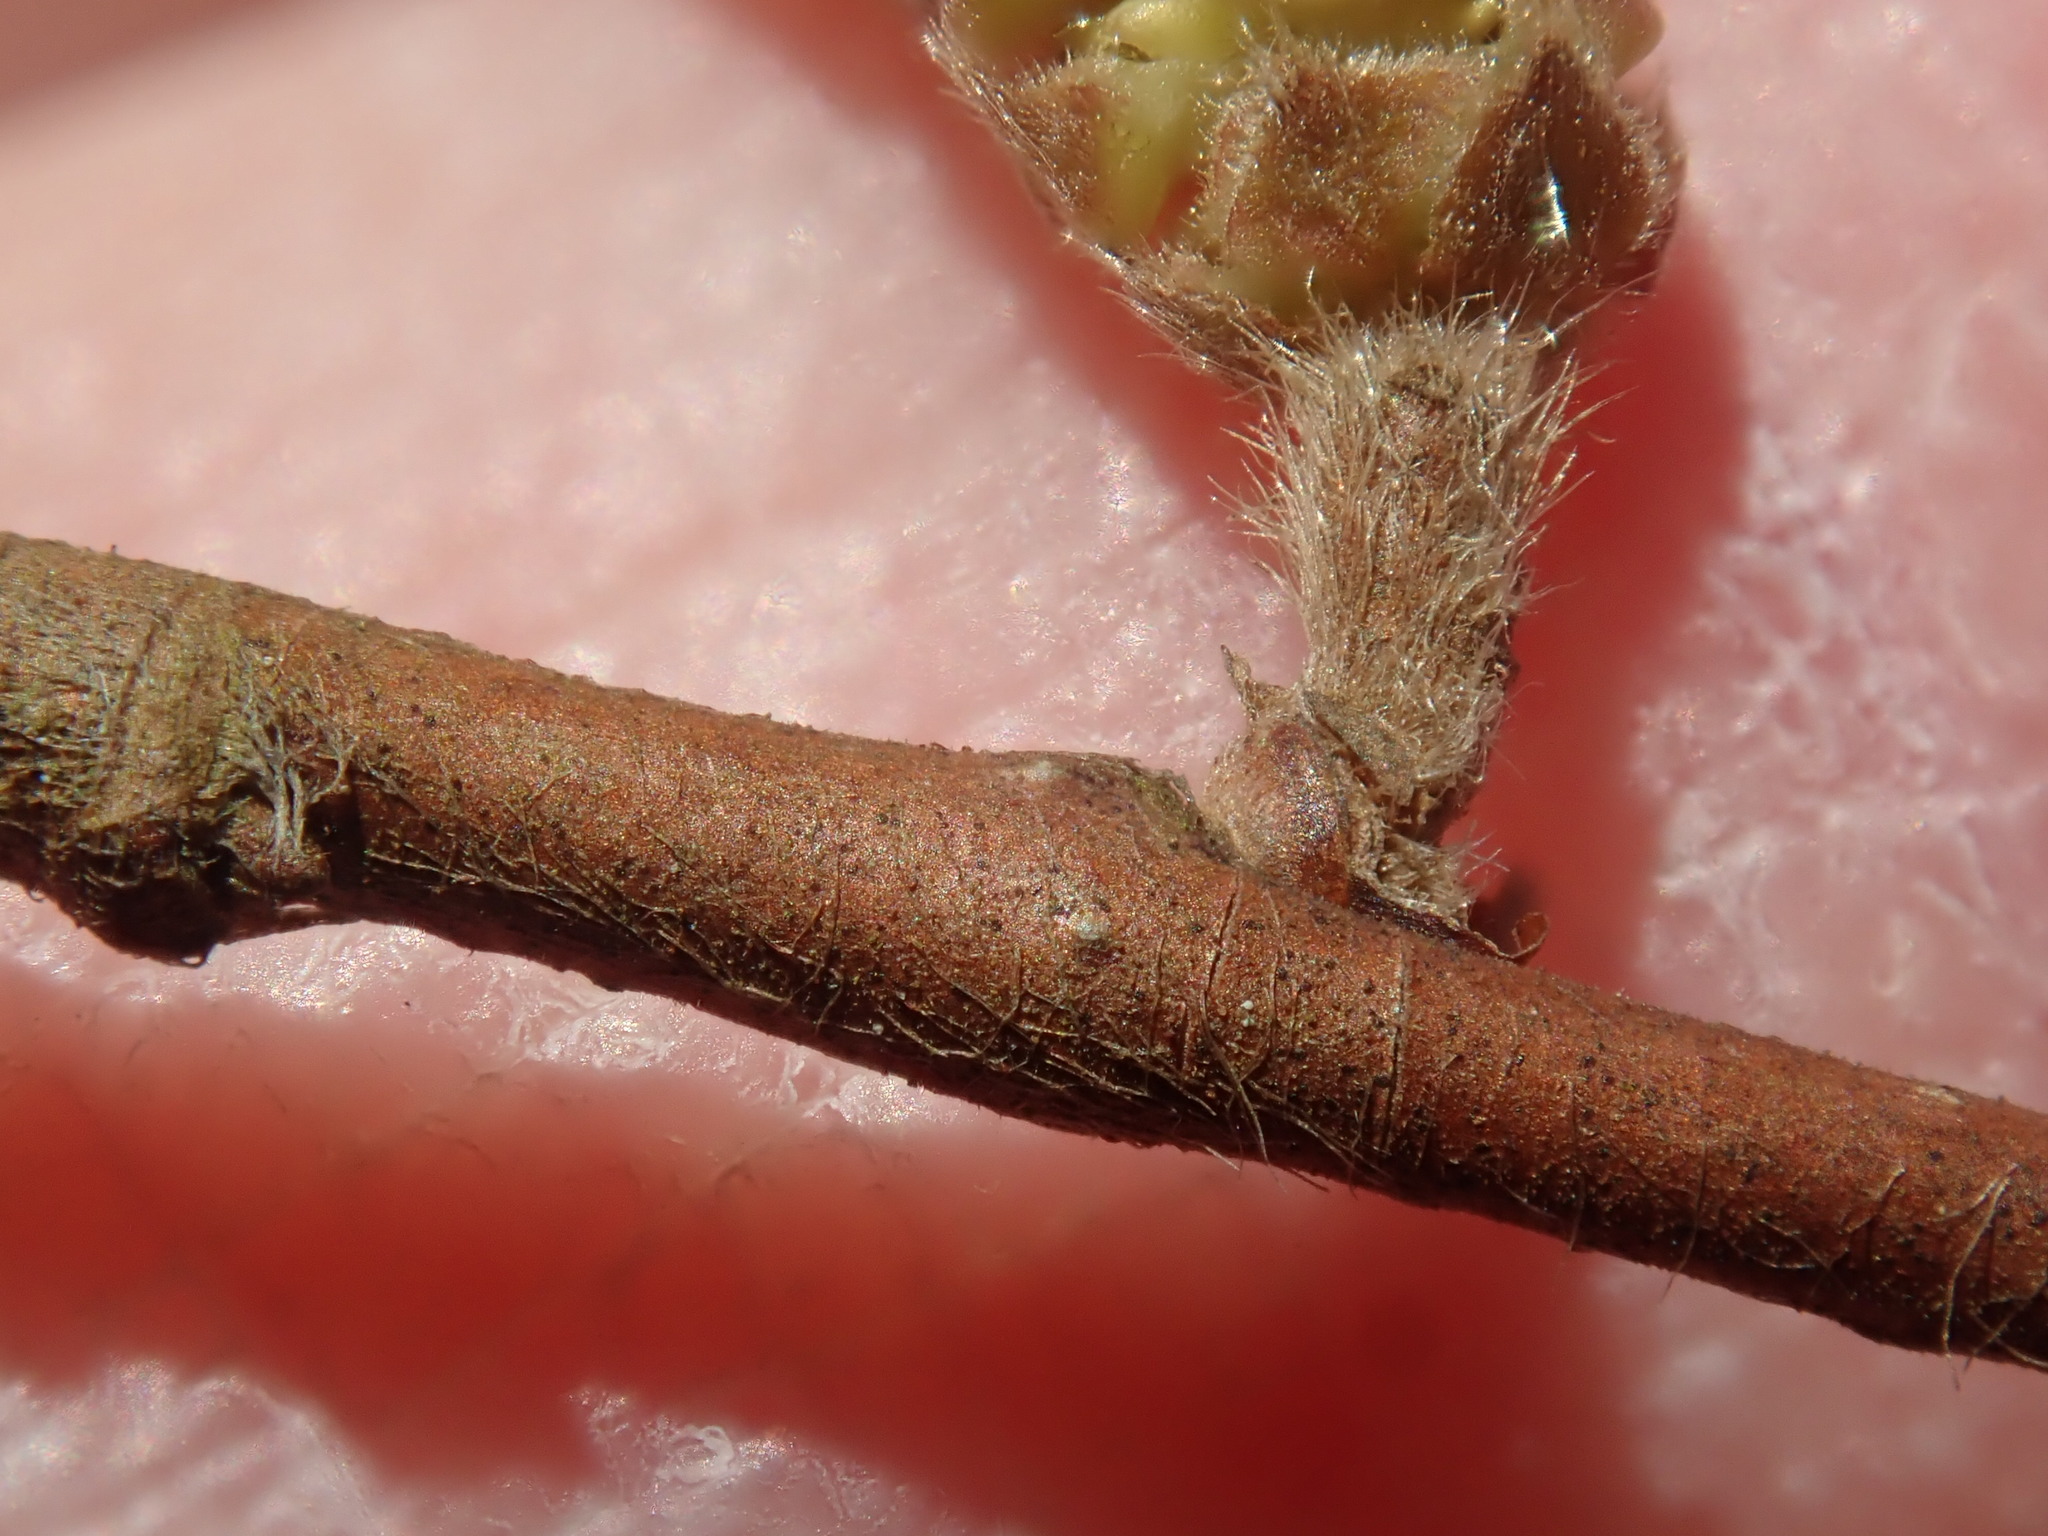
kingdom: Plantae
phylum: Tracheophyta
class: Magnoliopsida
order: Fagales
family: Betulaceae
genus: Corylus
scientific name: Corylus cornuta
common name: Beaked hazel
